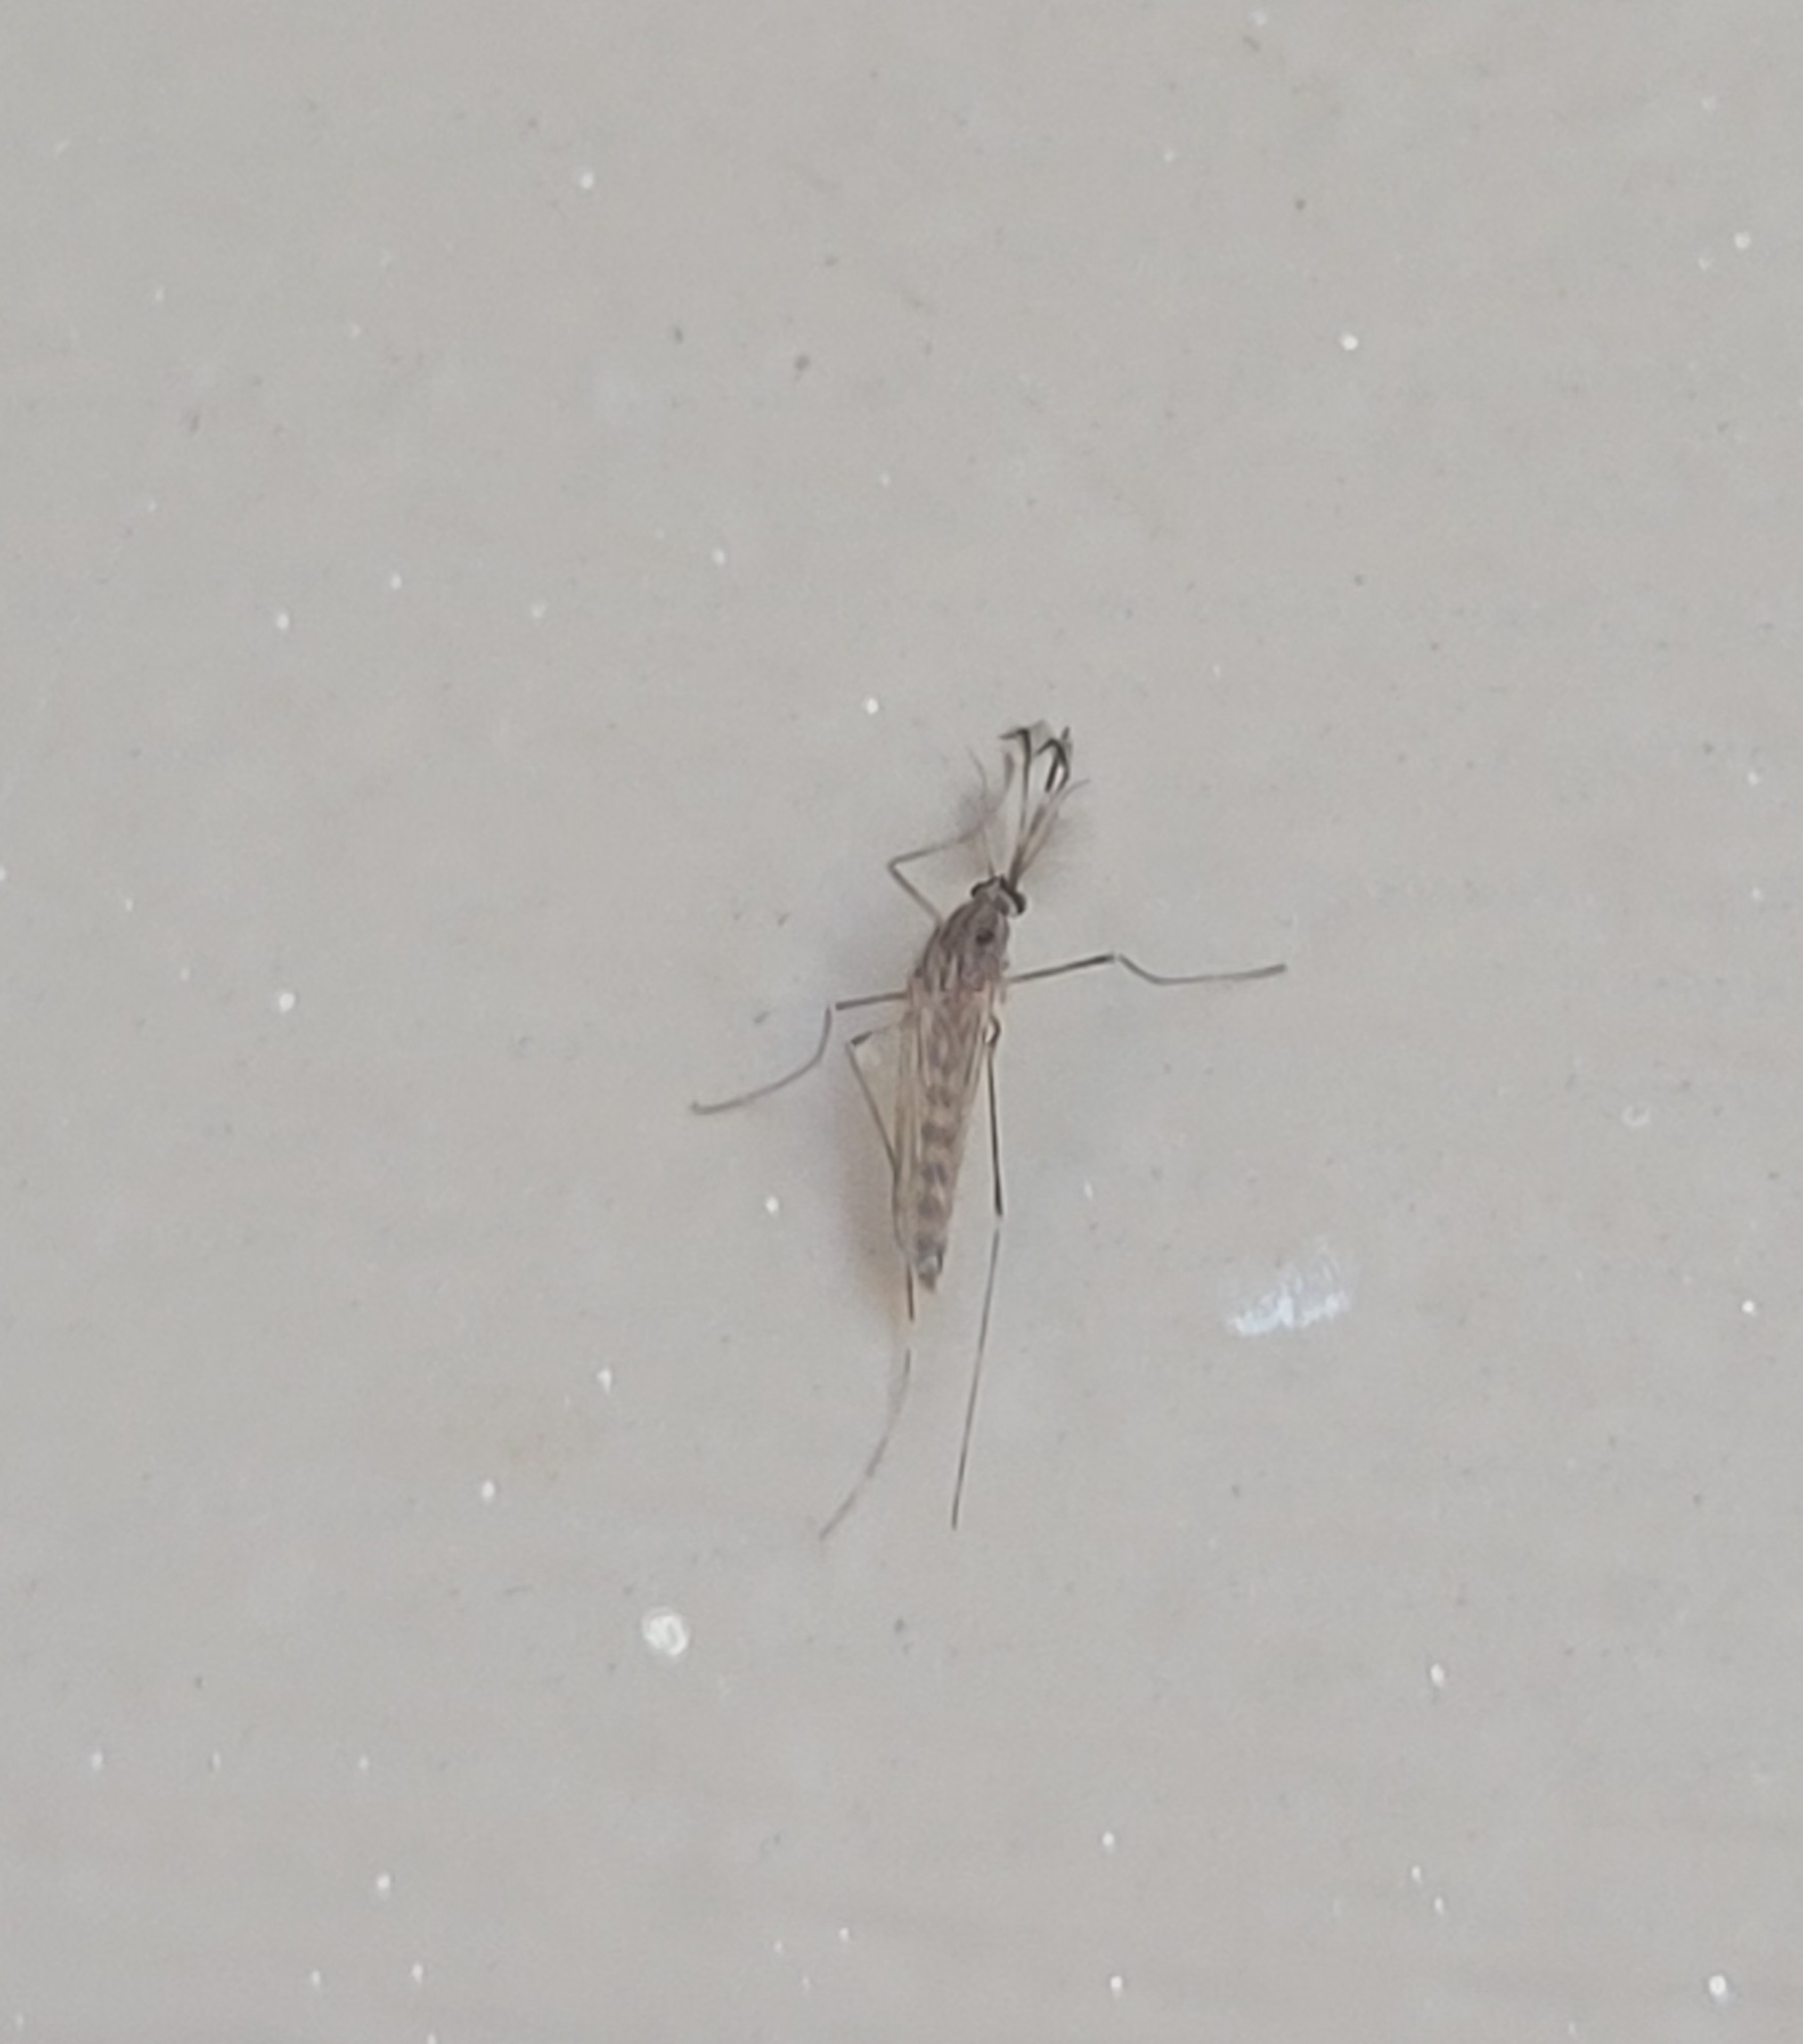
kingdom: Animalia
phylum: Arthropoda
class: Insecta
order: Diptera
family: Culicidae
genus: Culex
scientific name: Culex tarsalis
